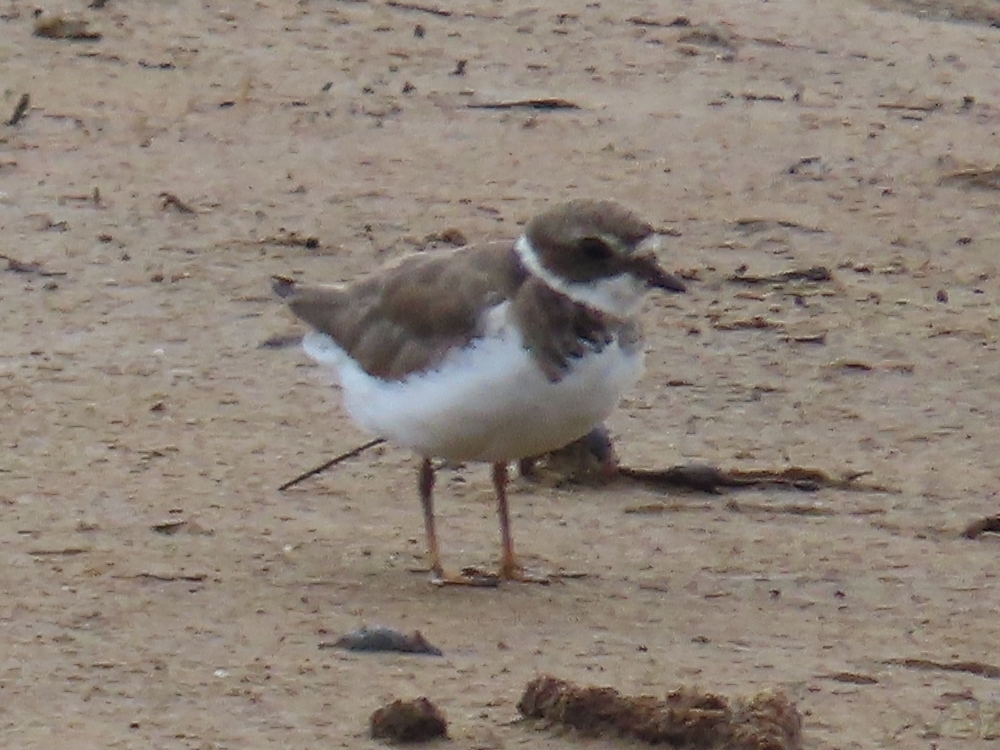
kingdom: Animalia
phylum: Chordata
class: Aves
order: Charadriiformes
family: Charadriidae
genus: Charadrius
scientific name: Charadrius semipalmatus
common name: Semipalmated plover
